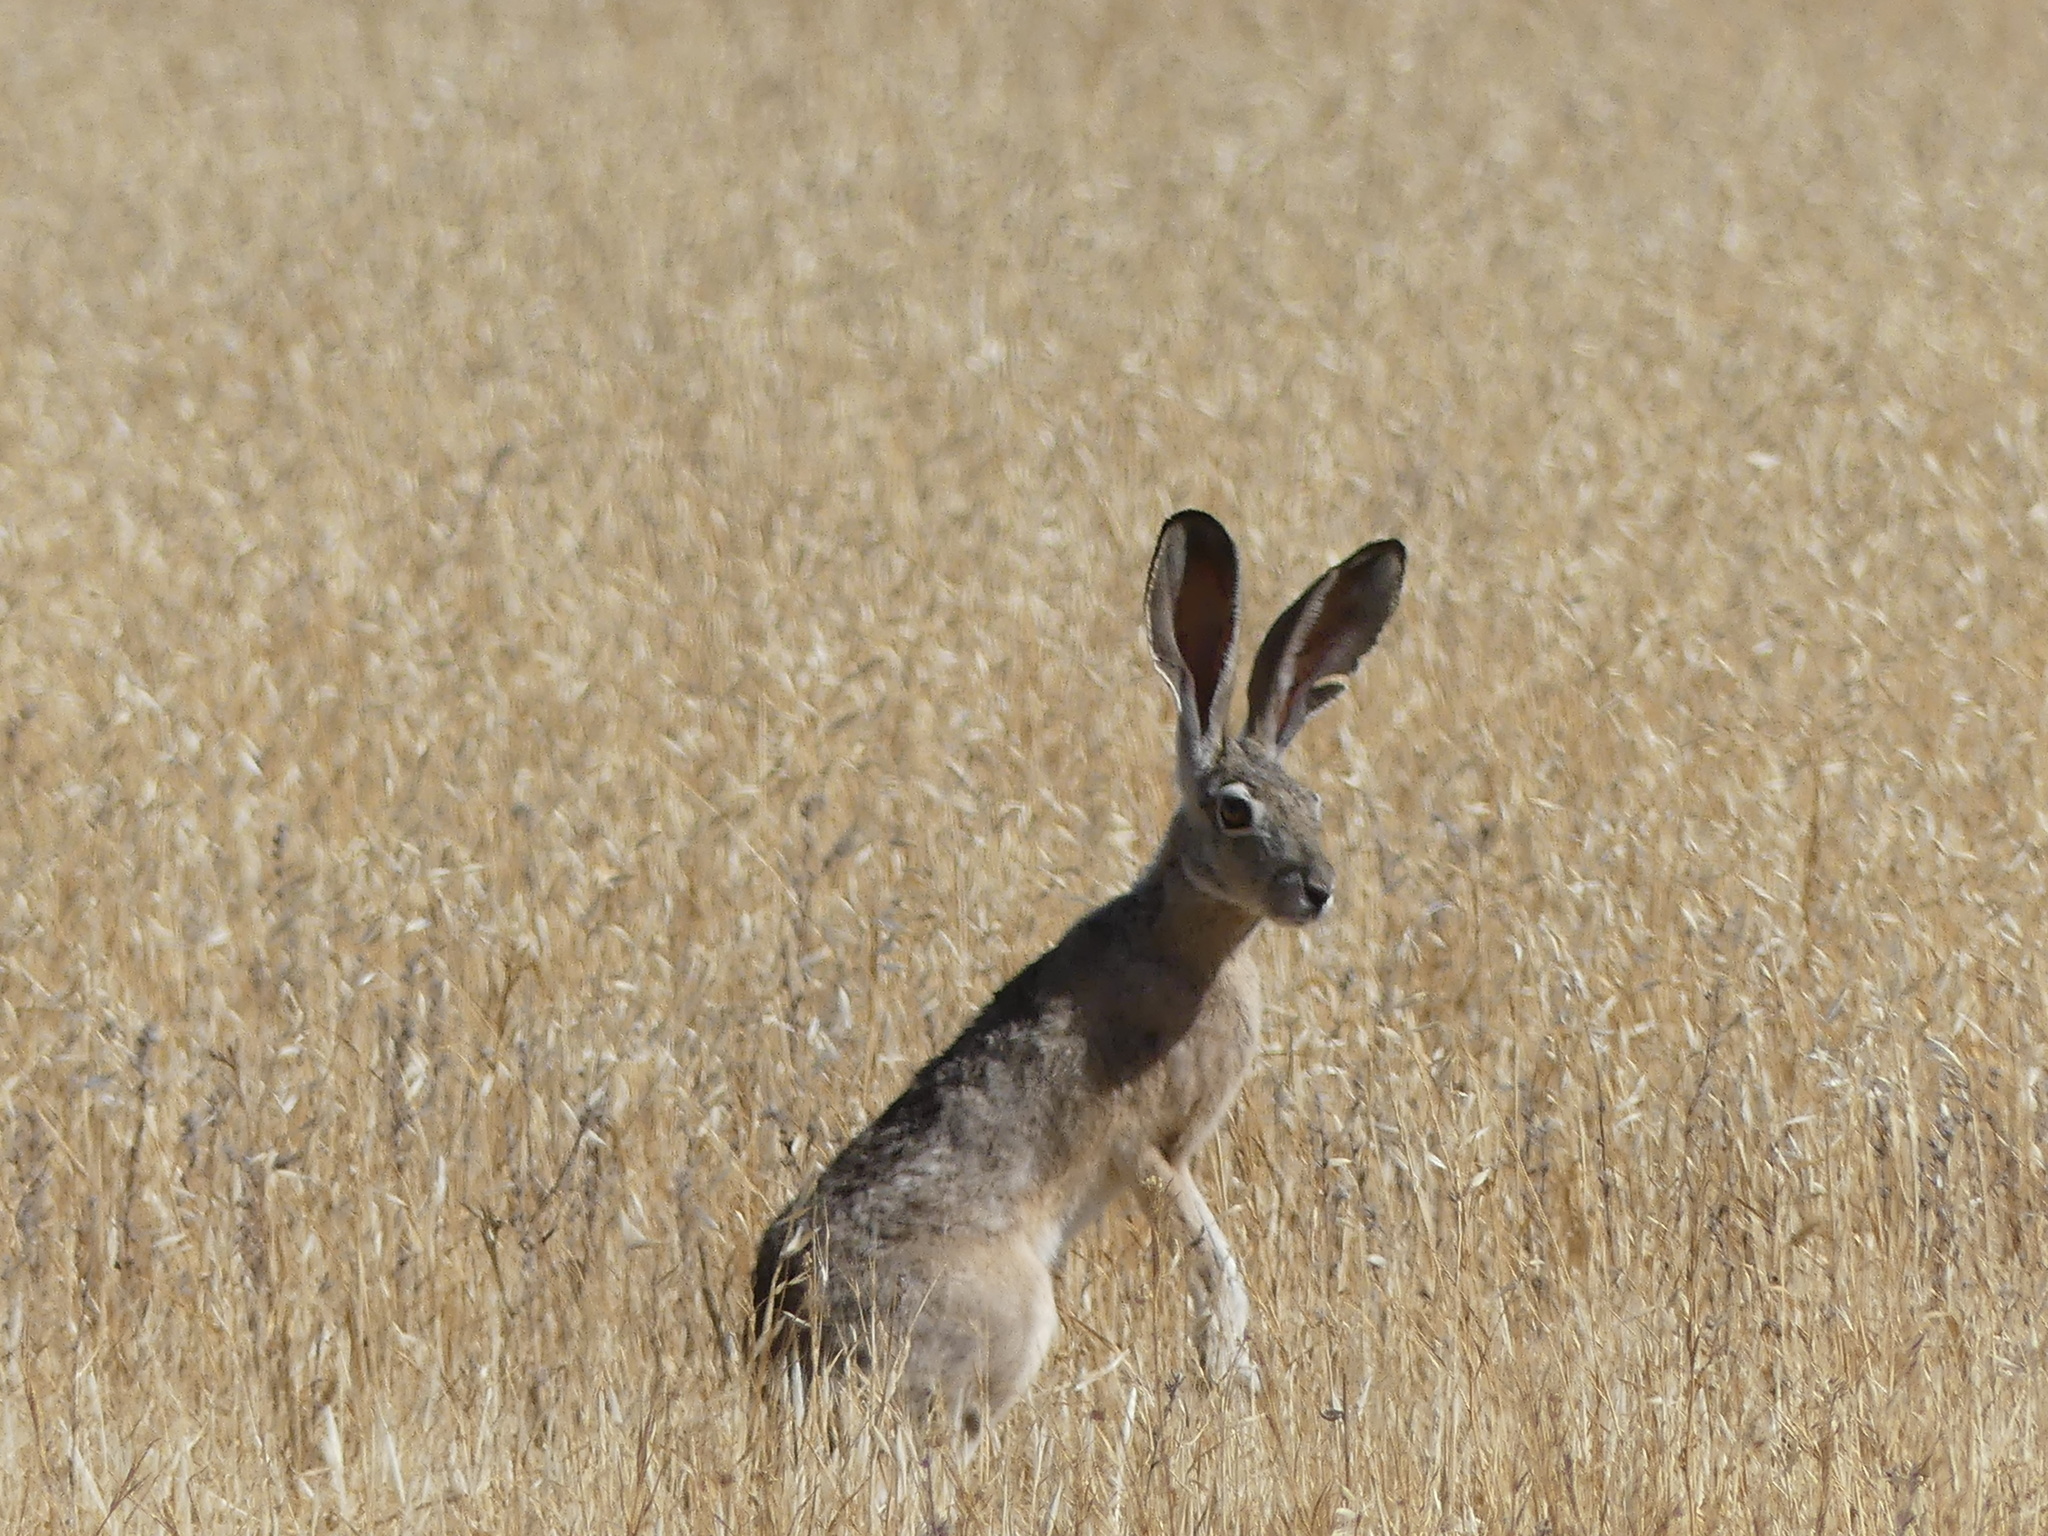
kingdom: Animalia
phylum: Chordata
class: Mammalia
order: Lagomorpha
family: Leporidae
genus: Lepus
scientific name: Lepus californicus
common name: Black-tailed jackrabbit
